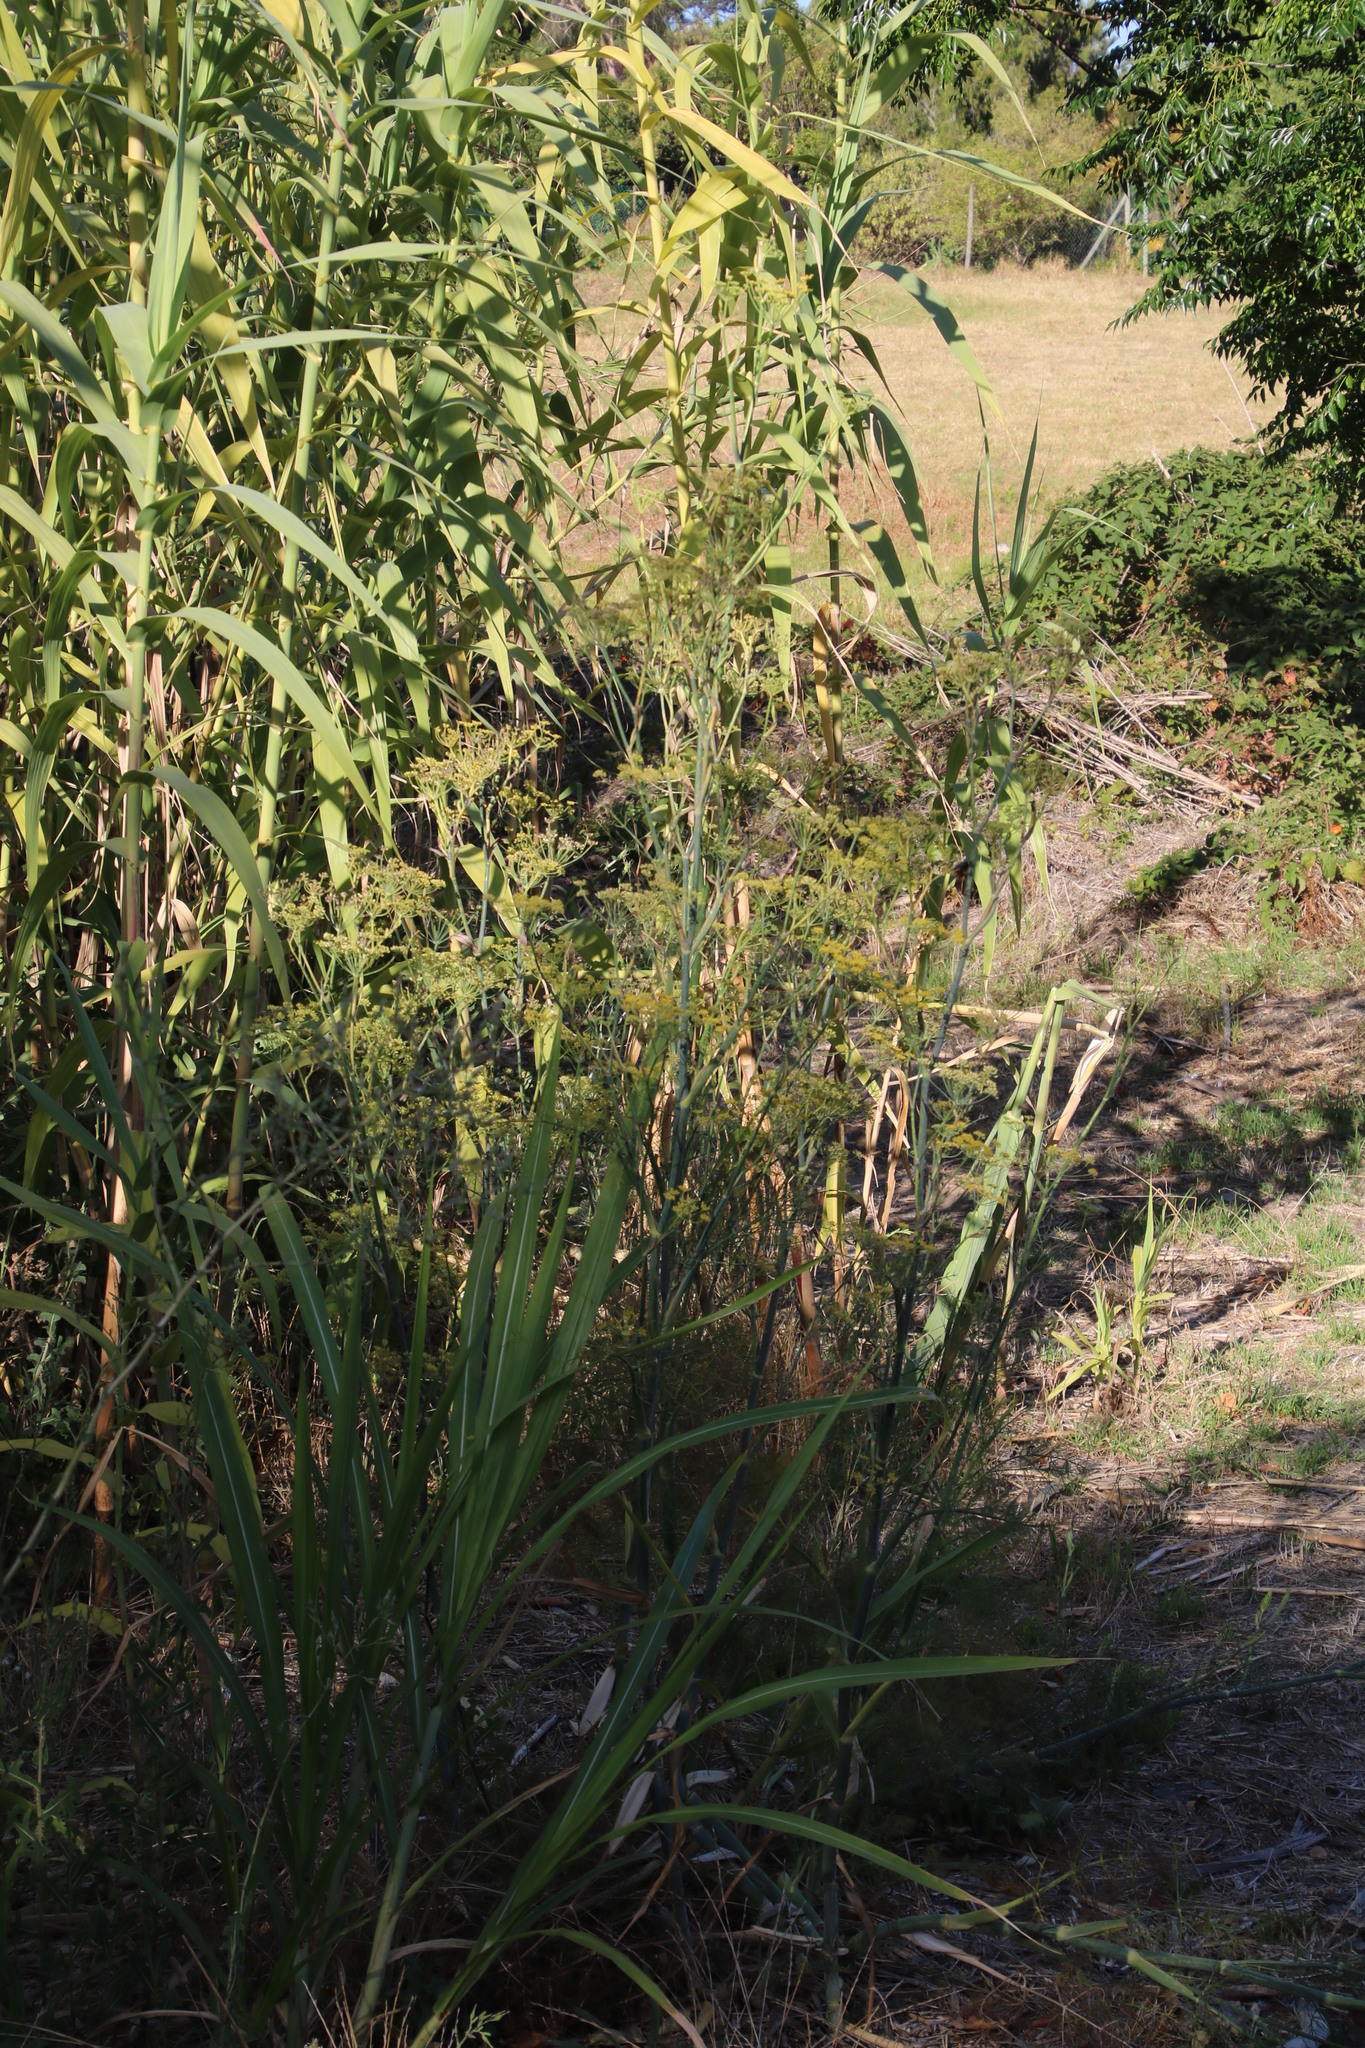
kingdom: Plantae
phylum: Tracheophyta
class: Magnoliopsida
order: Apiales
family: Apiaceae
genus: Foeniculum
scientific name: Foeniculum vulgare
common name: Fennel
